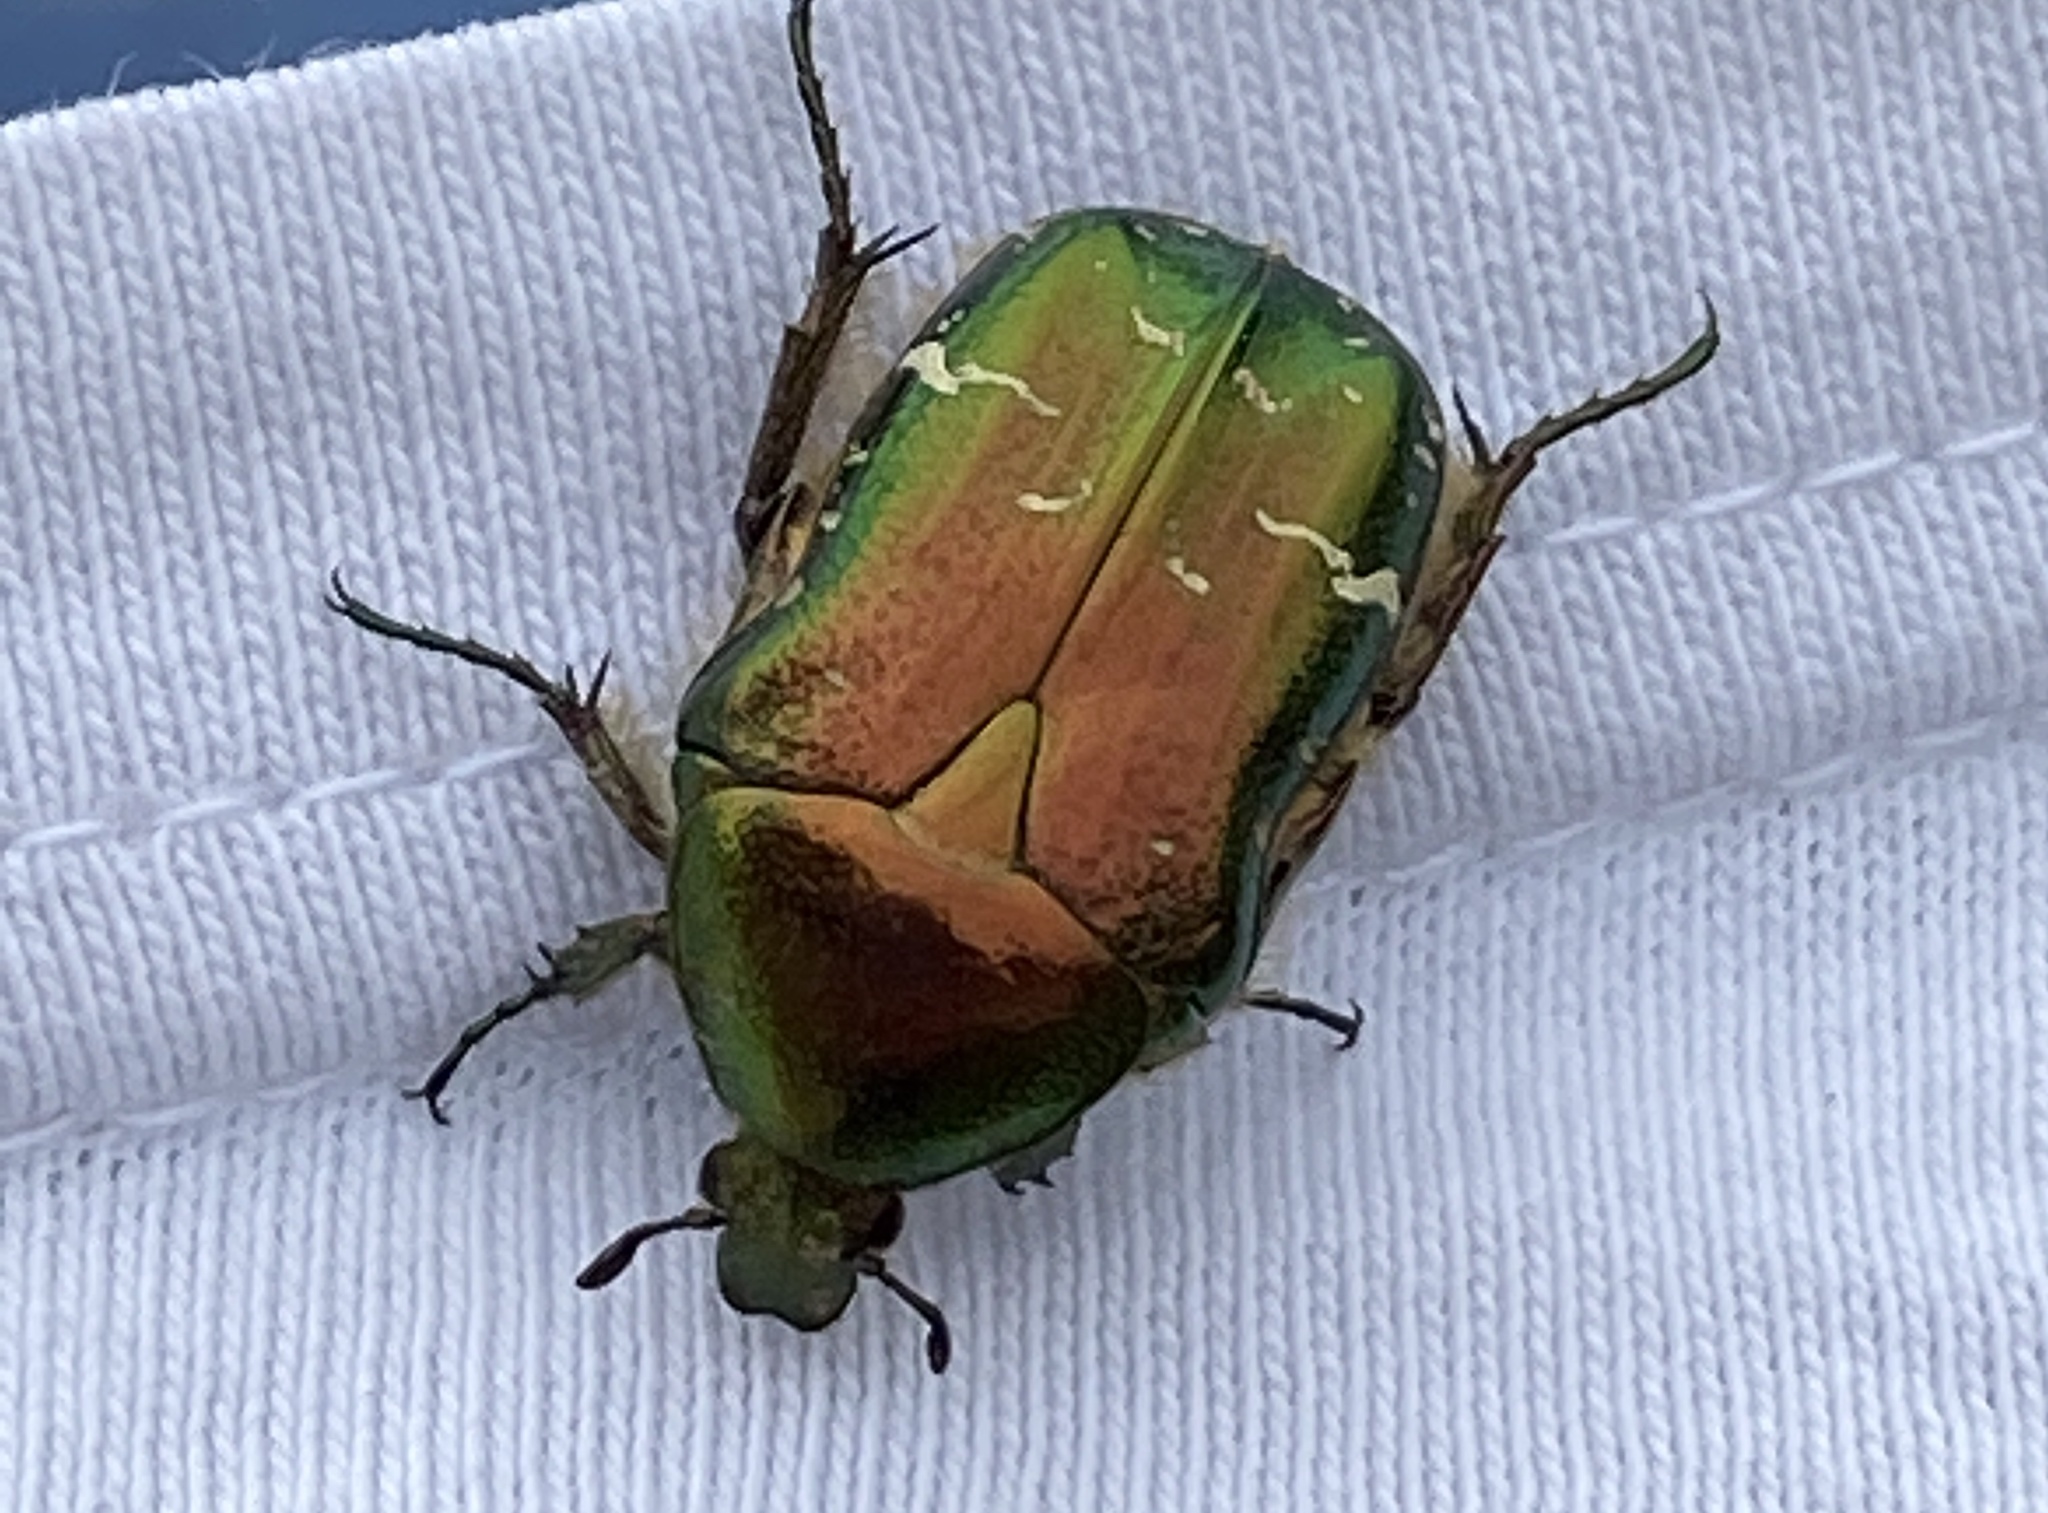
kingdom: Animalia
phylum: Arthropoda
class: Insecta
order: Coleoptera
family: Scarabaeidae
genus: Cetonia
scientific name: Cetonia aurata
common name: Rose chafer
